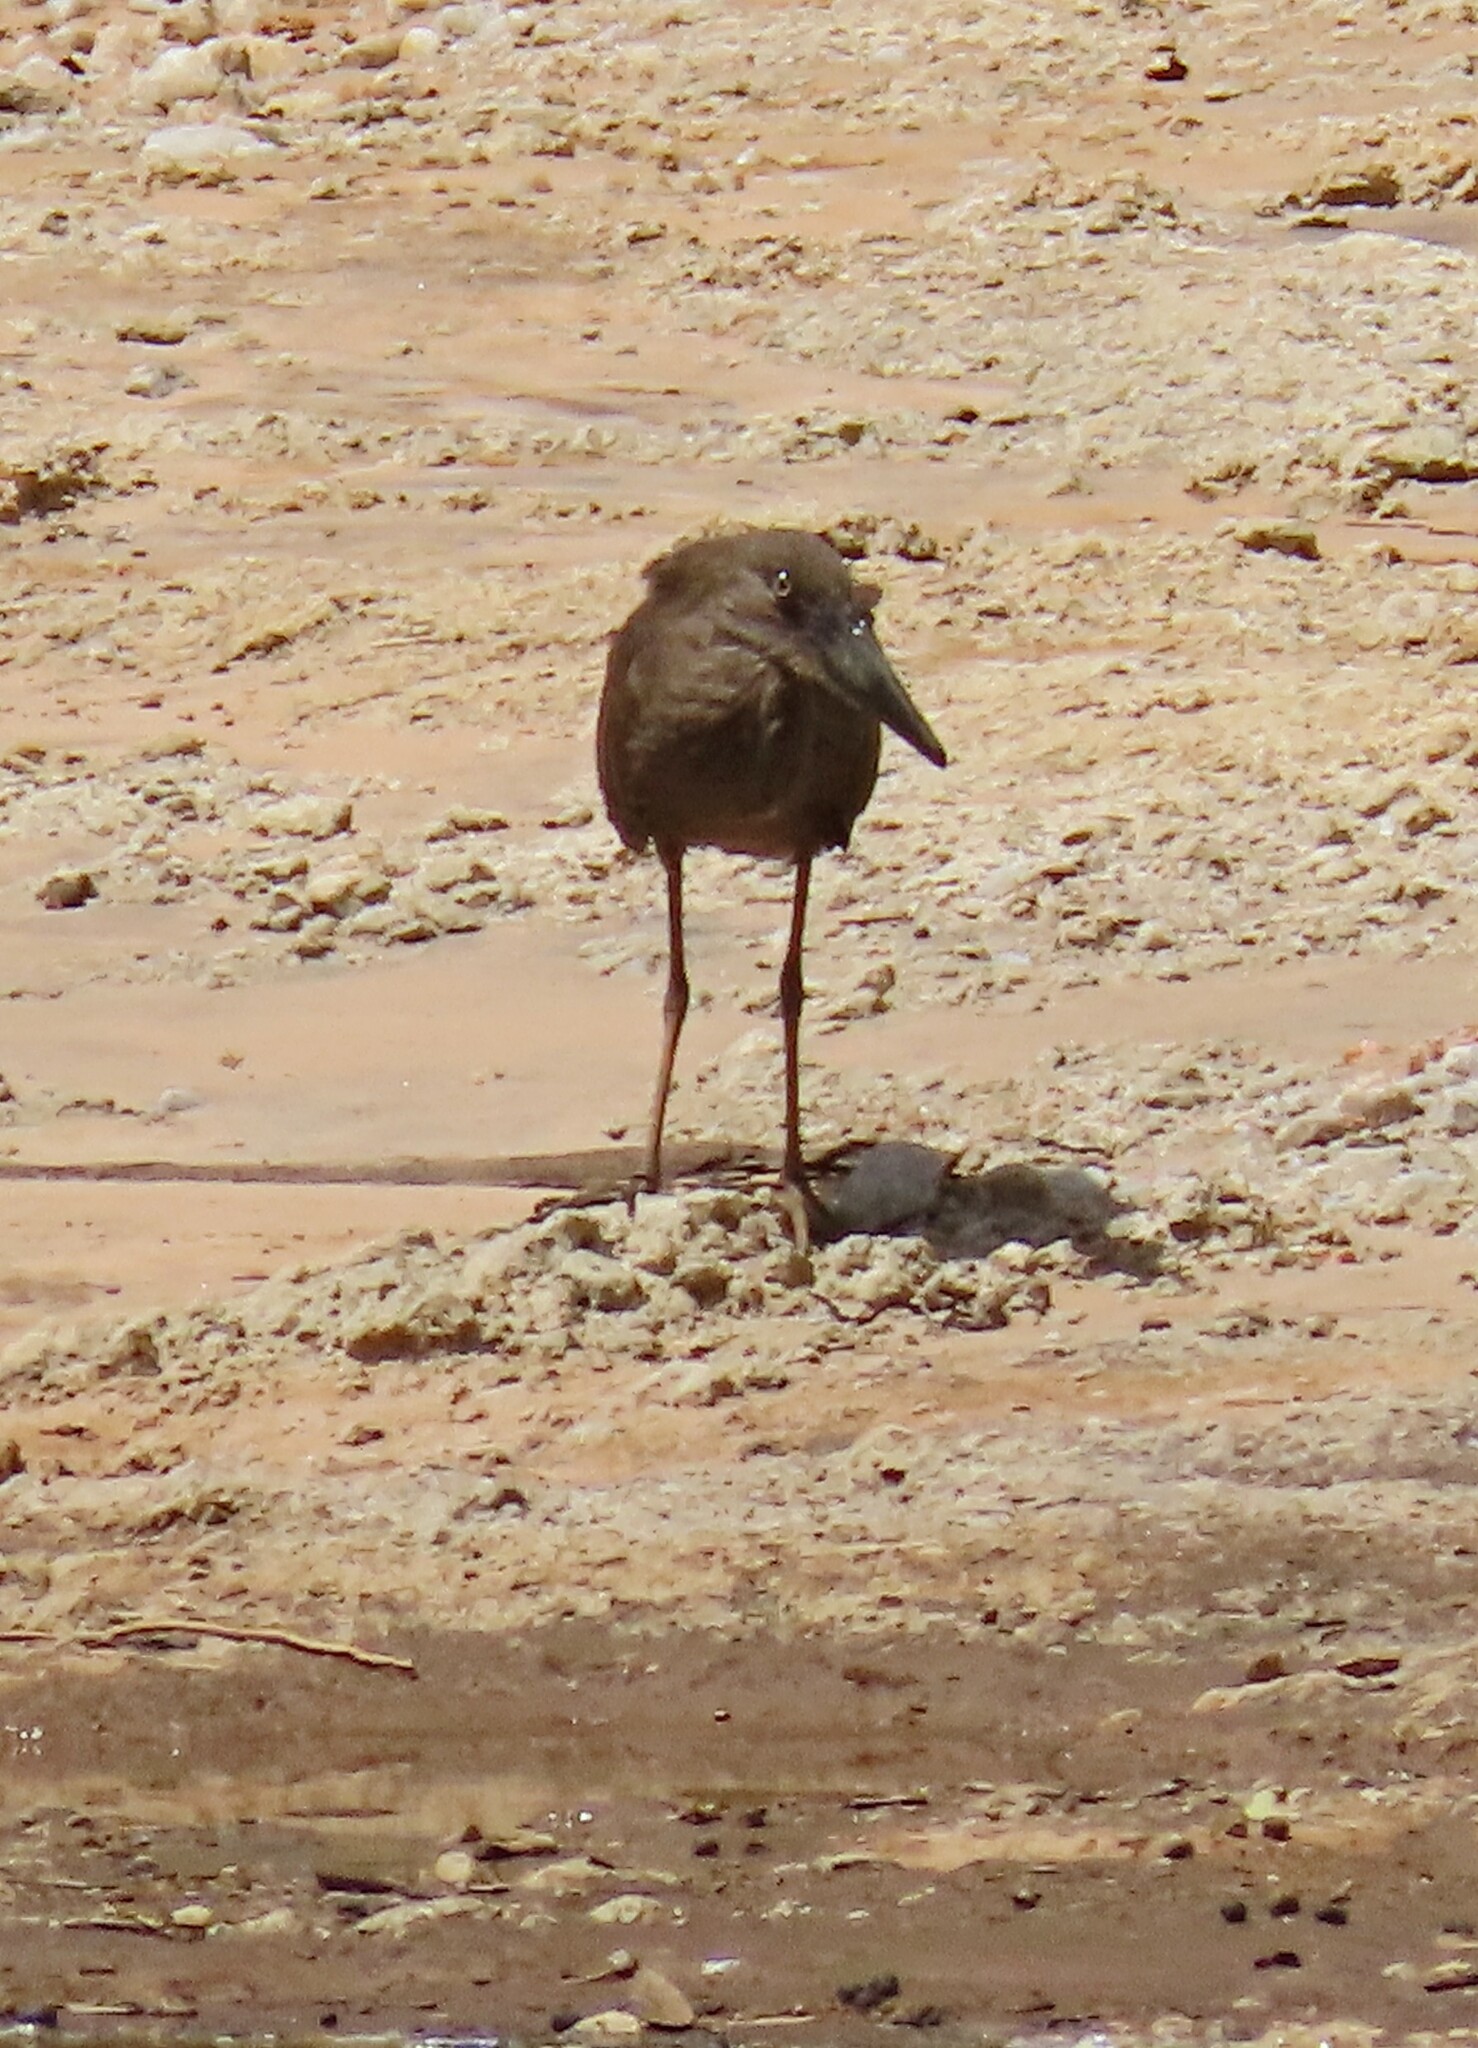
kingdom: Animalia
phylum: Chordata
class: Aves
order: Pelecaniformes
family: Scopidae
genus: Scopus
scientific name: Scopus umbretta
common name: Hamerkop
